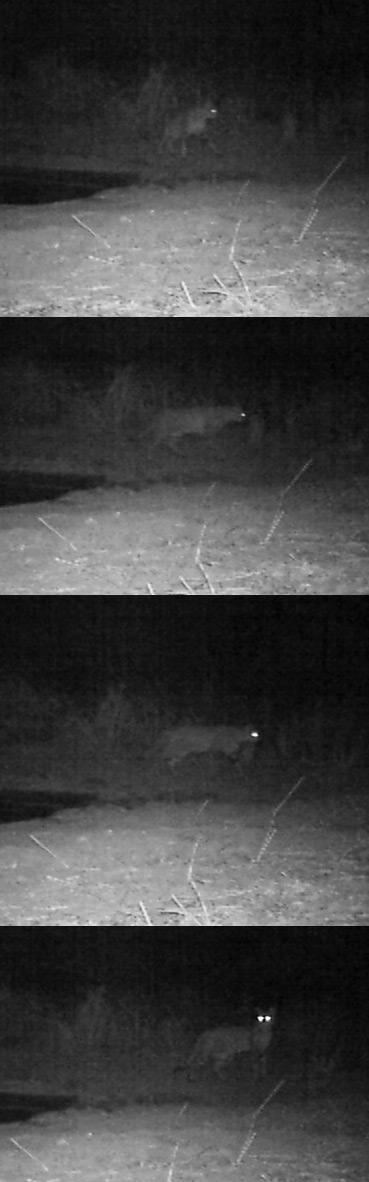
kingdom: Animalia
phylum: Chordata
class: Mammalia
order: Carnivora
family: Felidae
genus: Felis
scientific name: Felis silvestris
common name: Wildcat
